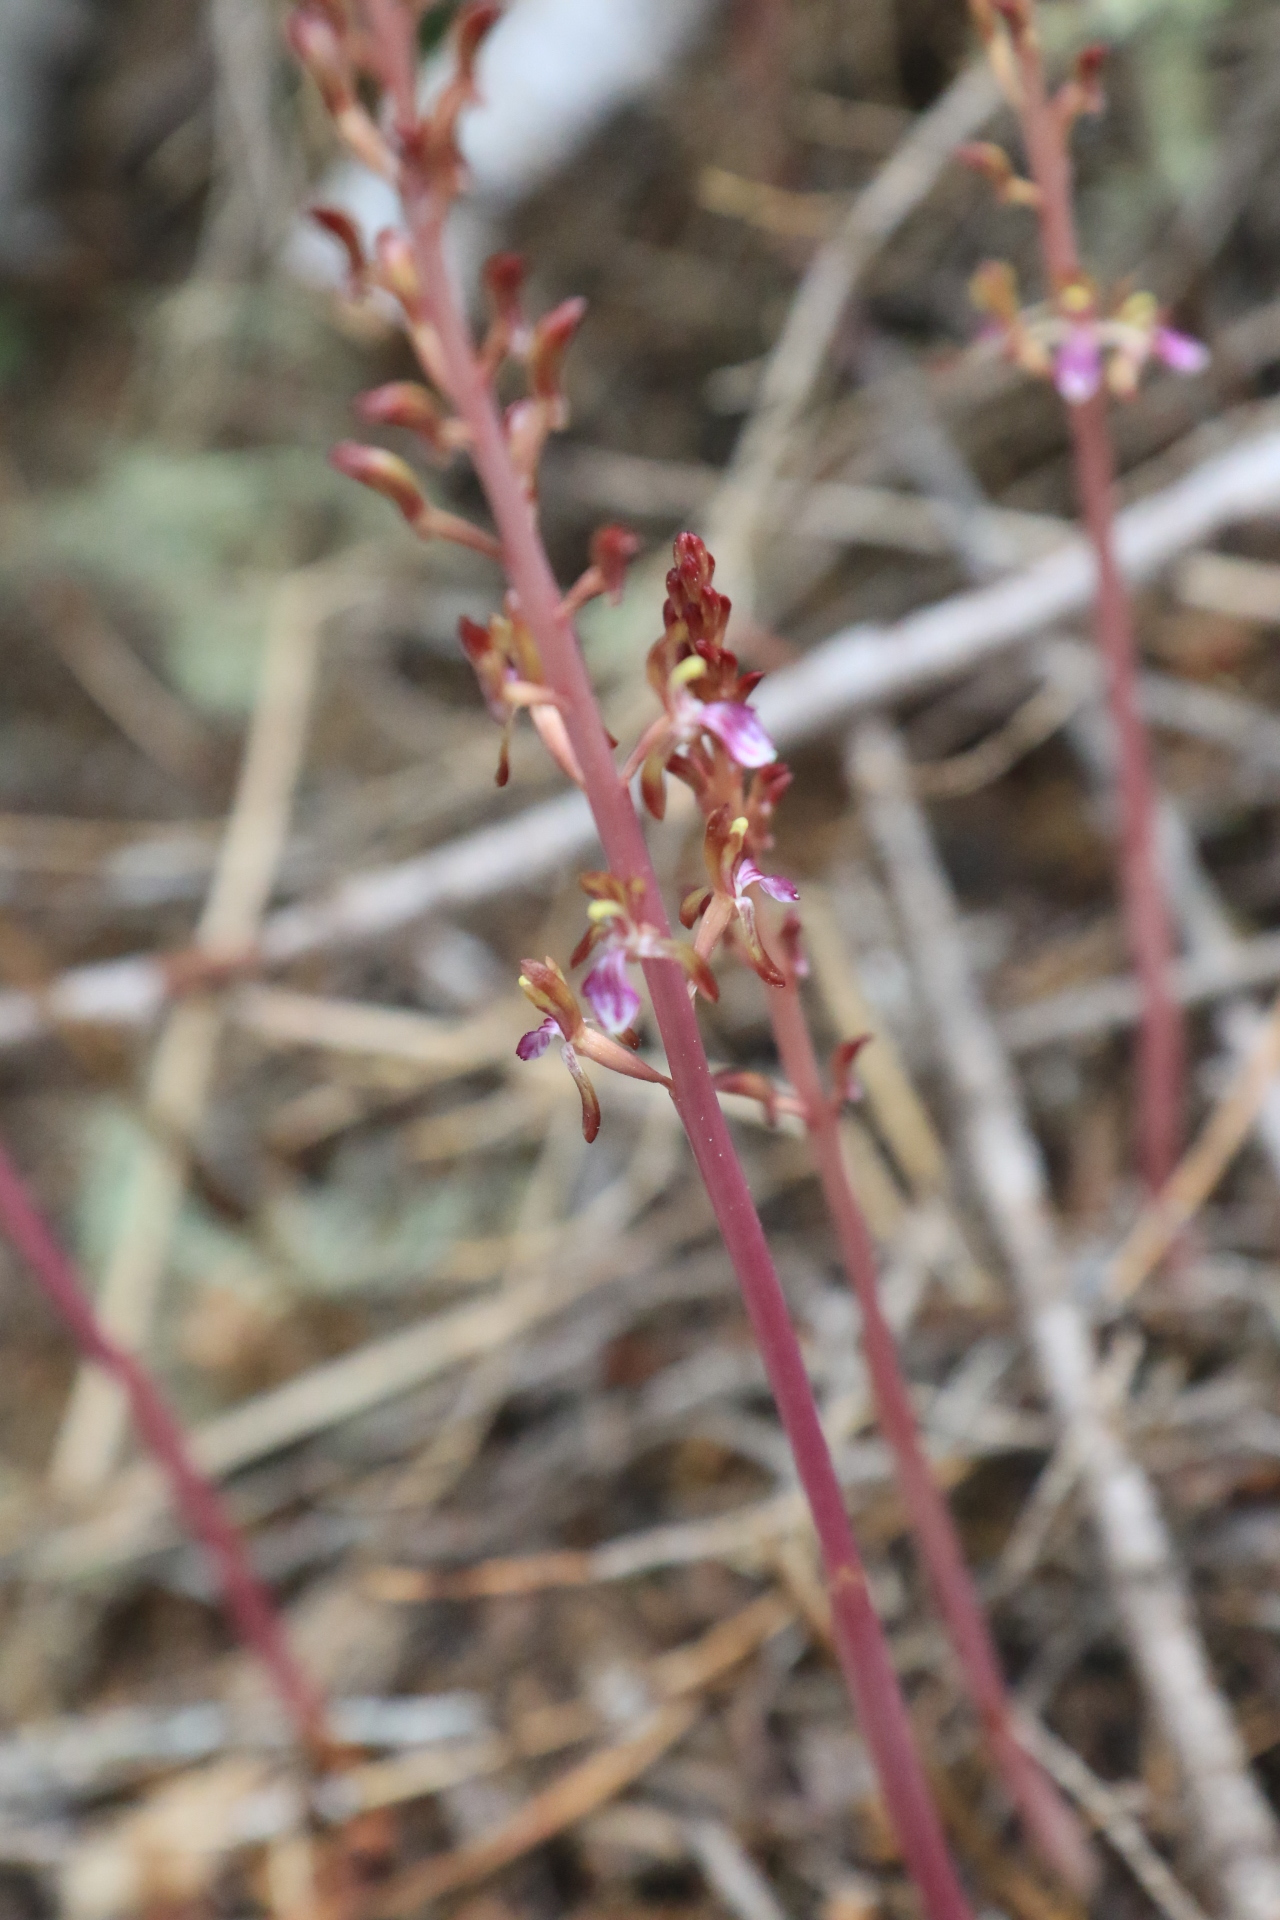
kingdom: Plantae
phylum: Tracheophyta
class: Liliopsida
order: Asparagales
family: Orchidaceae
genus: Corallorhiza
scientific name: Corallorhiza mertensiana
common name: Pacific coralroot
